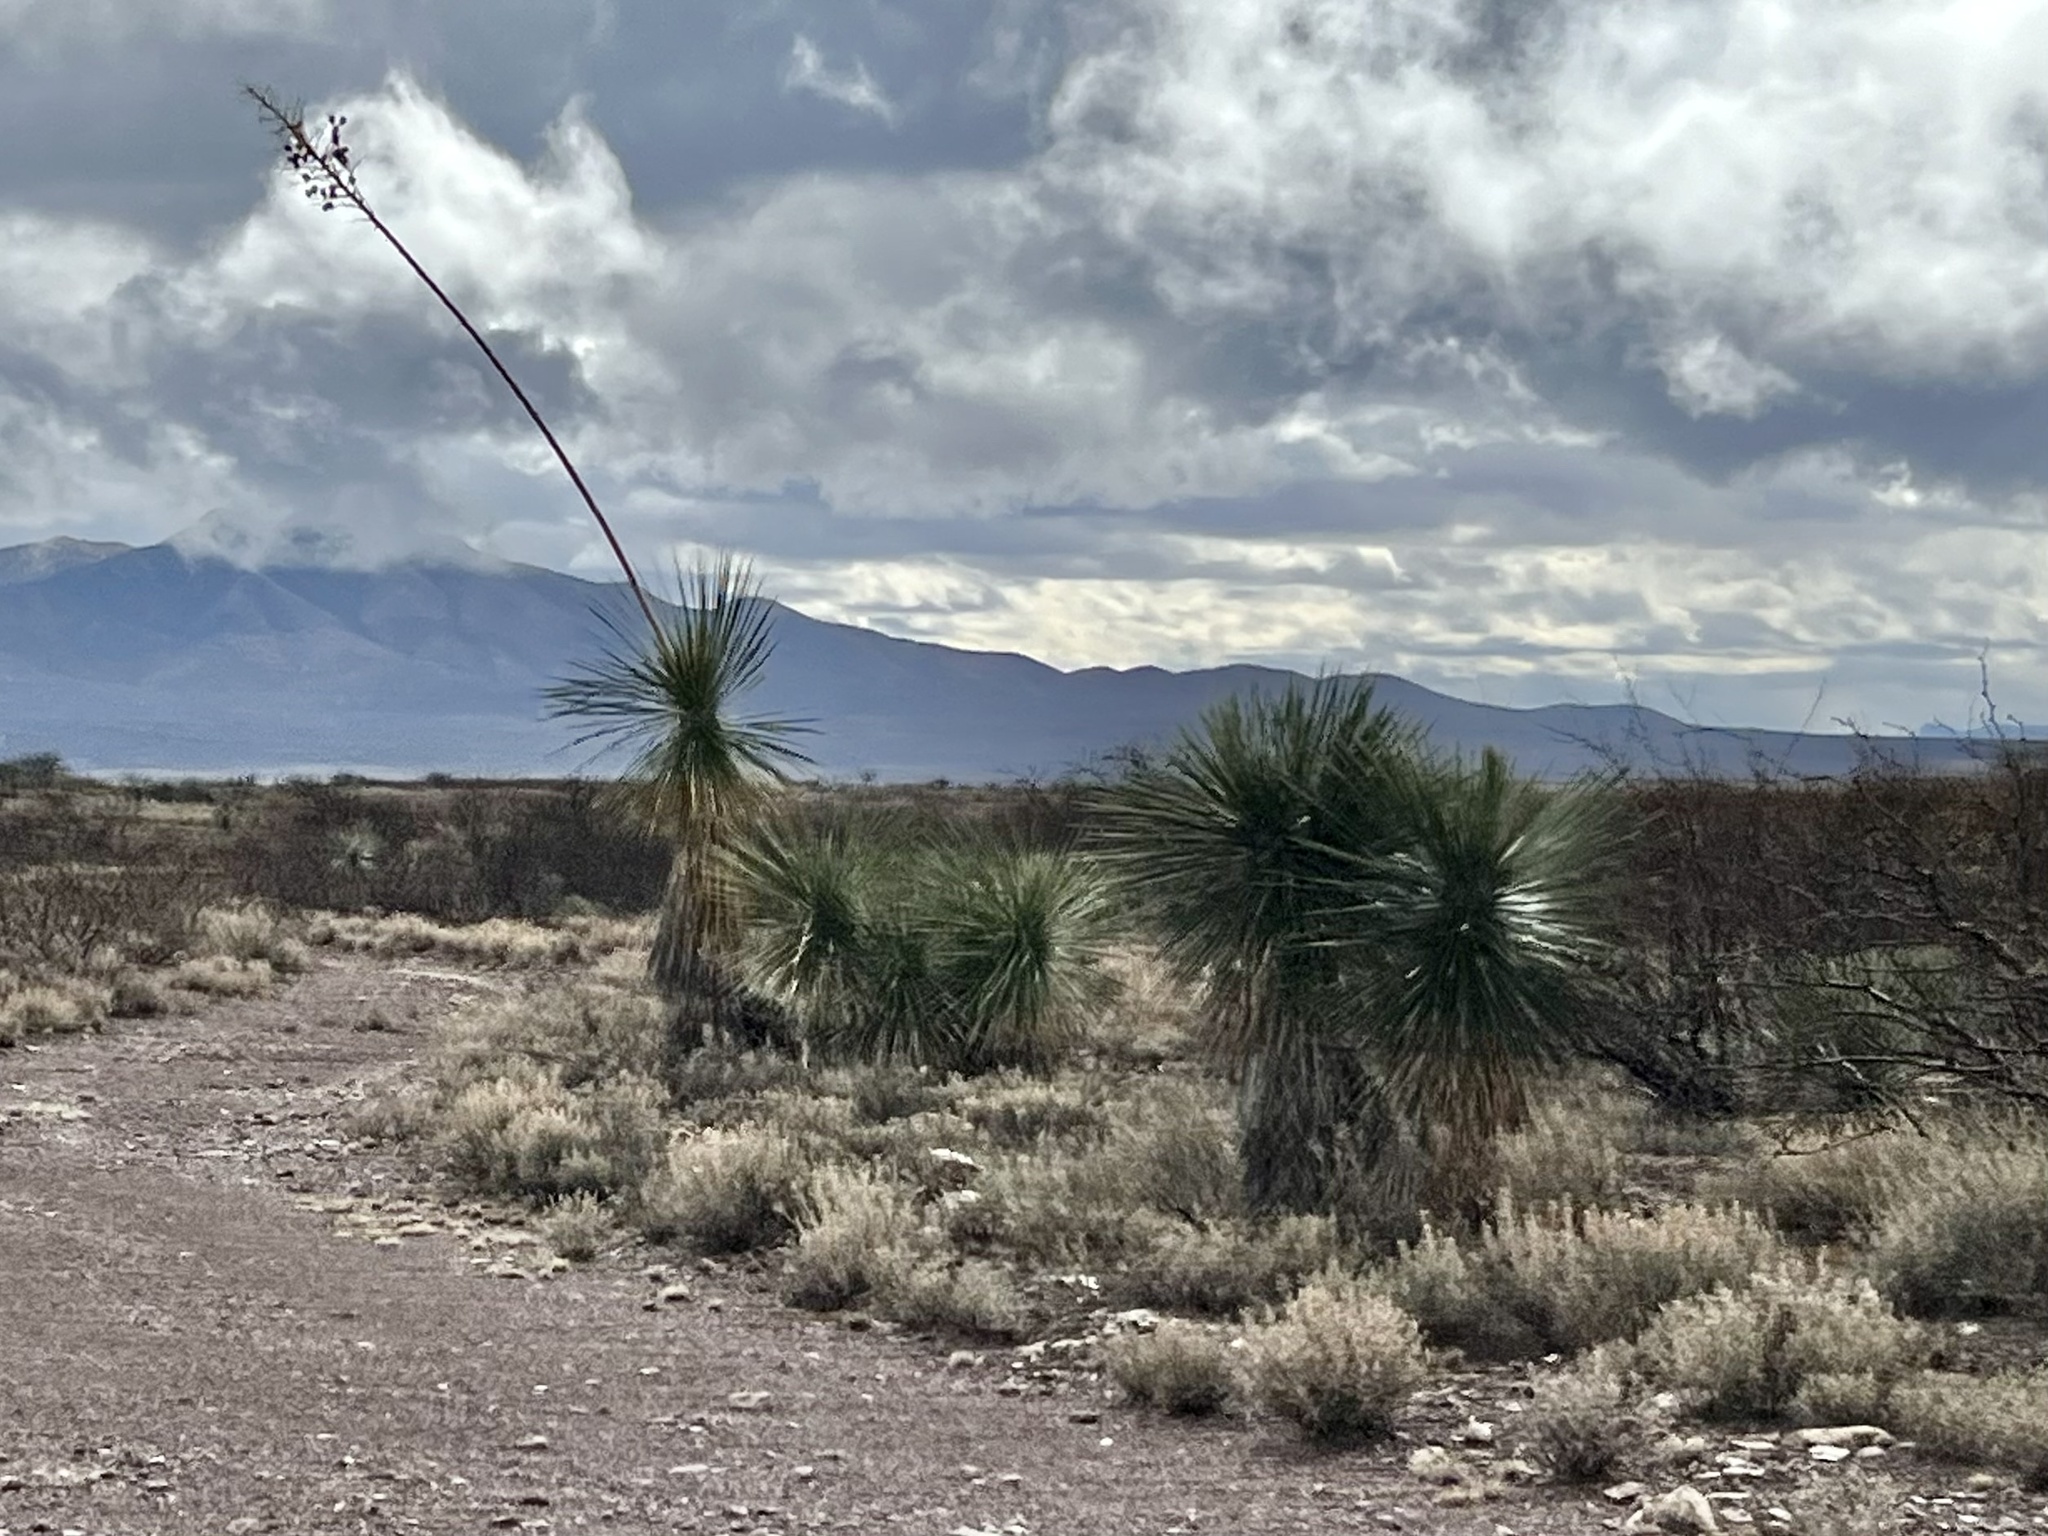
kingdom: Plantae
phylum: Tracheophyta
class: Liliopsida
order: Asparagales
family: Asparagaceae
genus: Yucca
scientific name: Yucca elata
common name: Palmella
